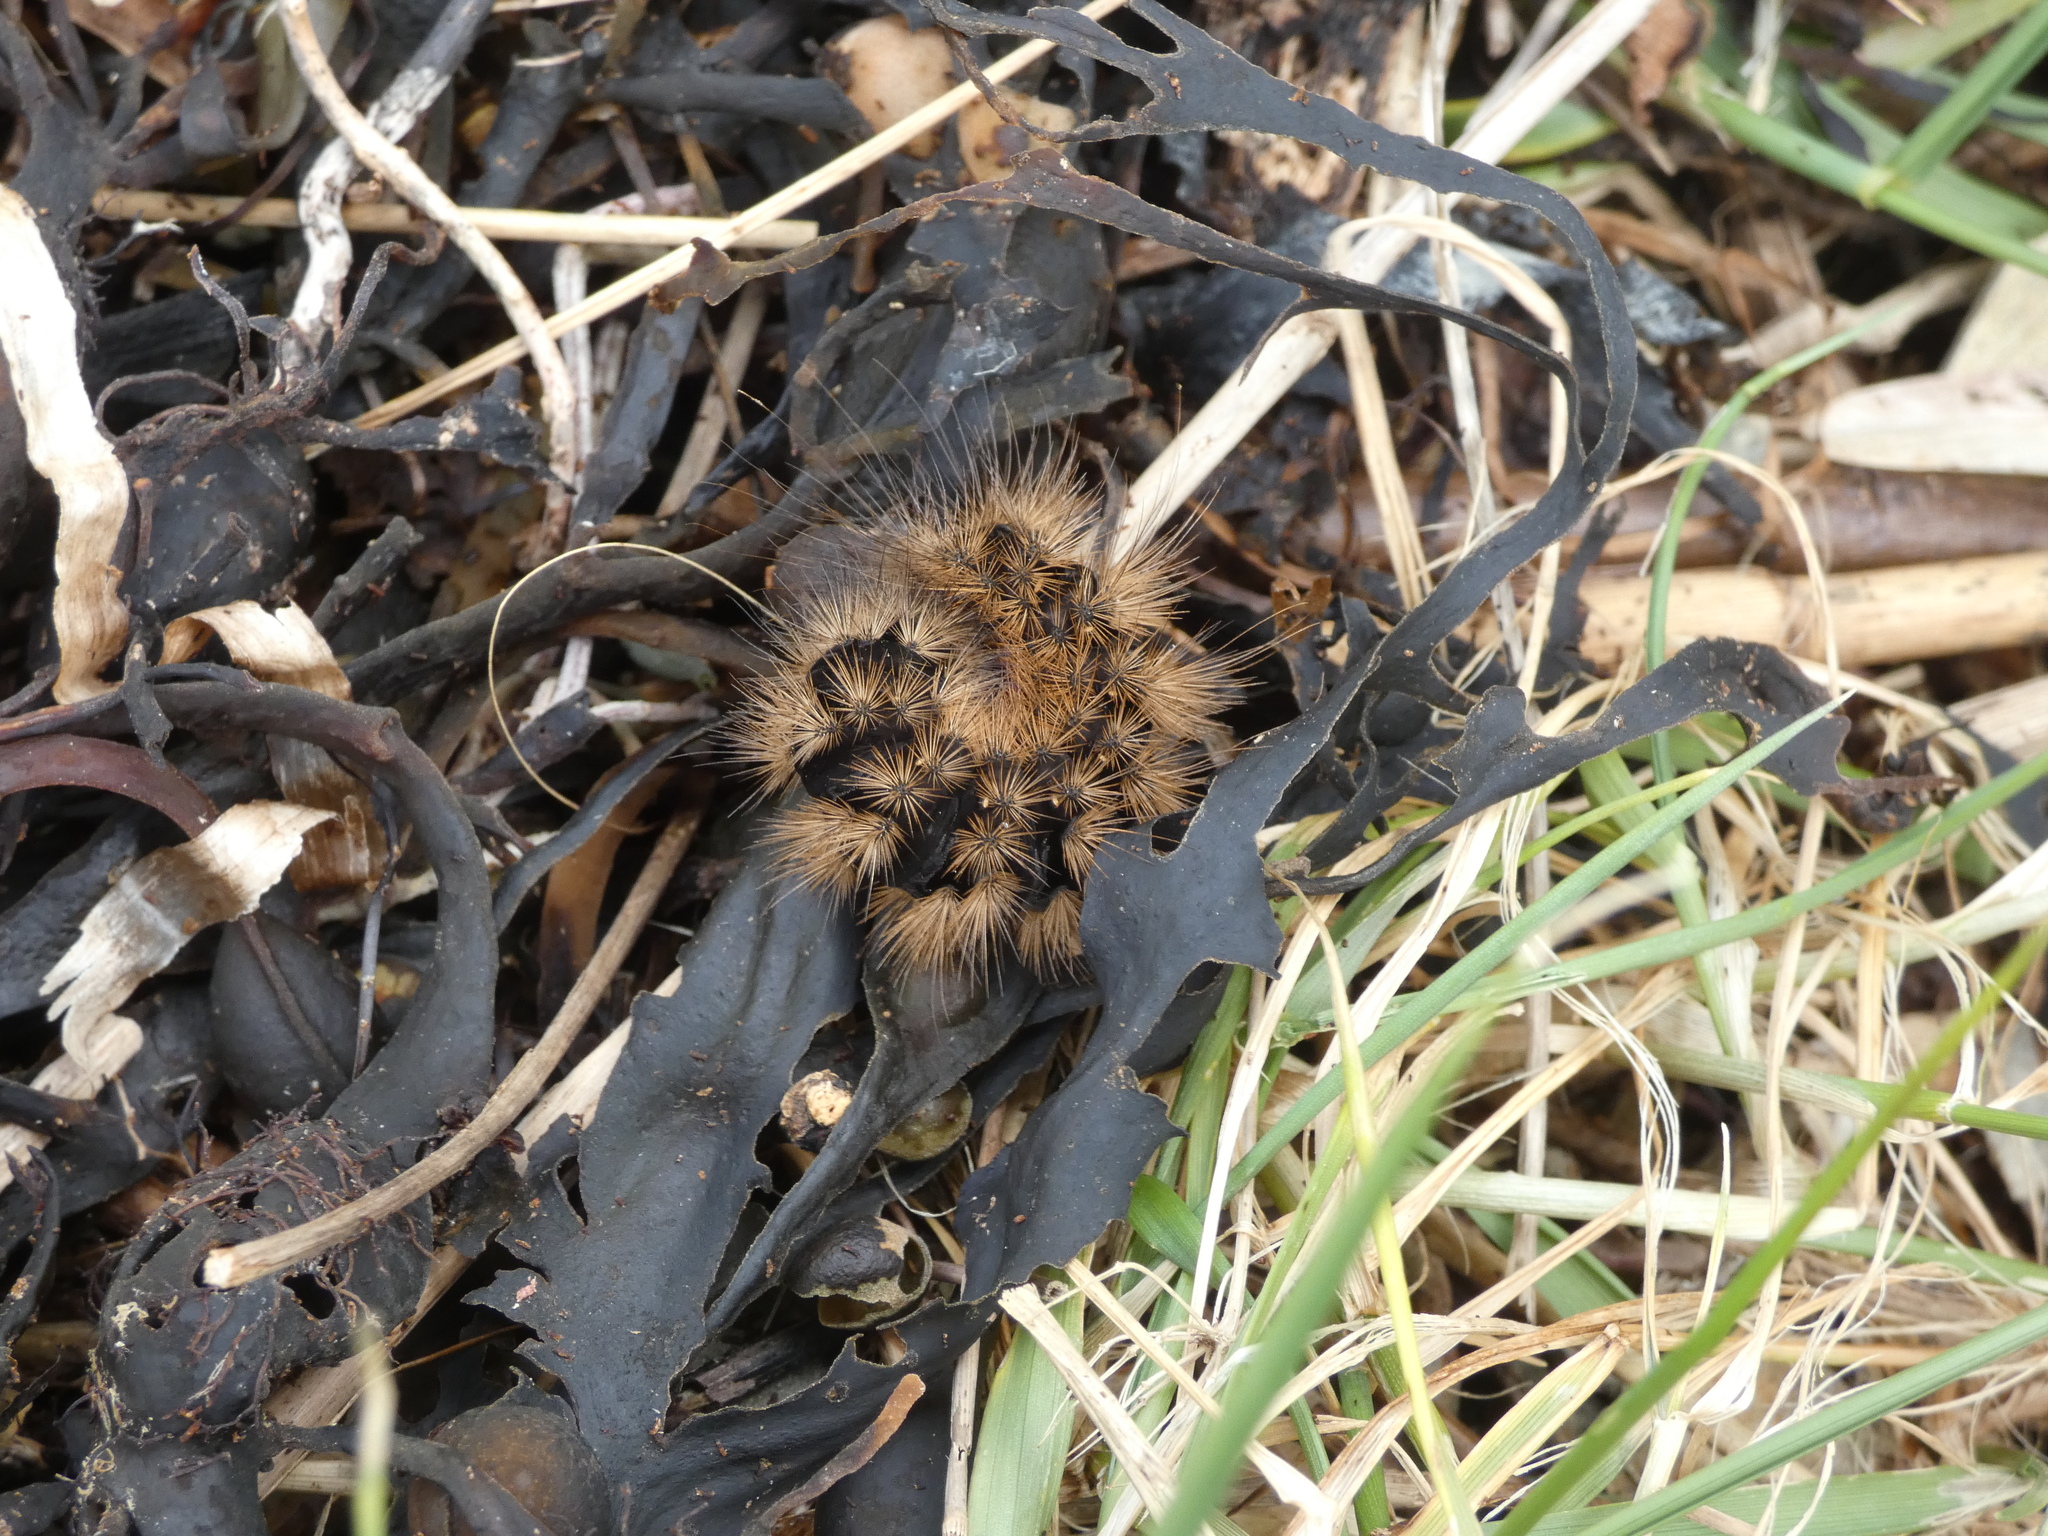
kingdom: Animalia
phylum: Arthropoda
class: Insecta
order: Lepidoptera
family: Erebidae
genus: Phragmatobia
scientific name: Phragmatobia fuliginosa
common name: Ruby tiger
